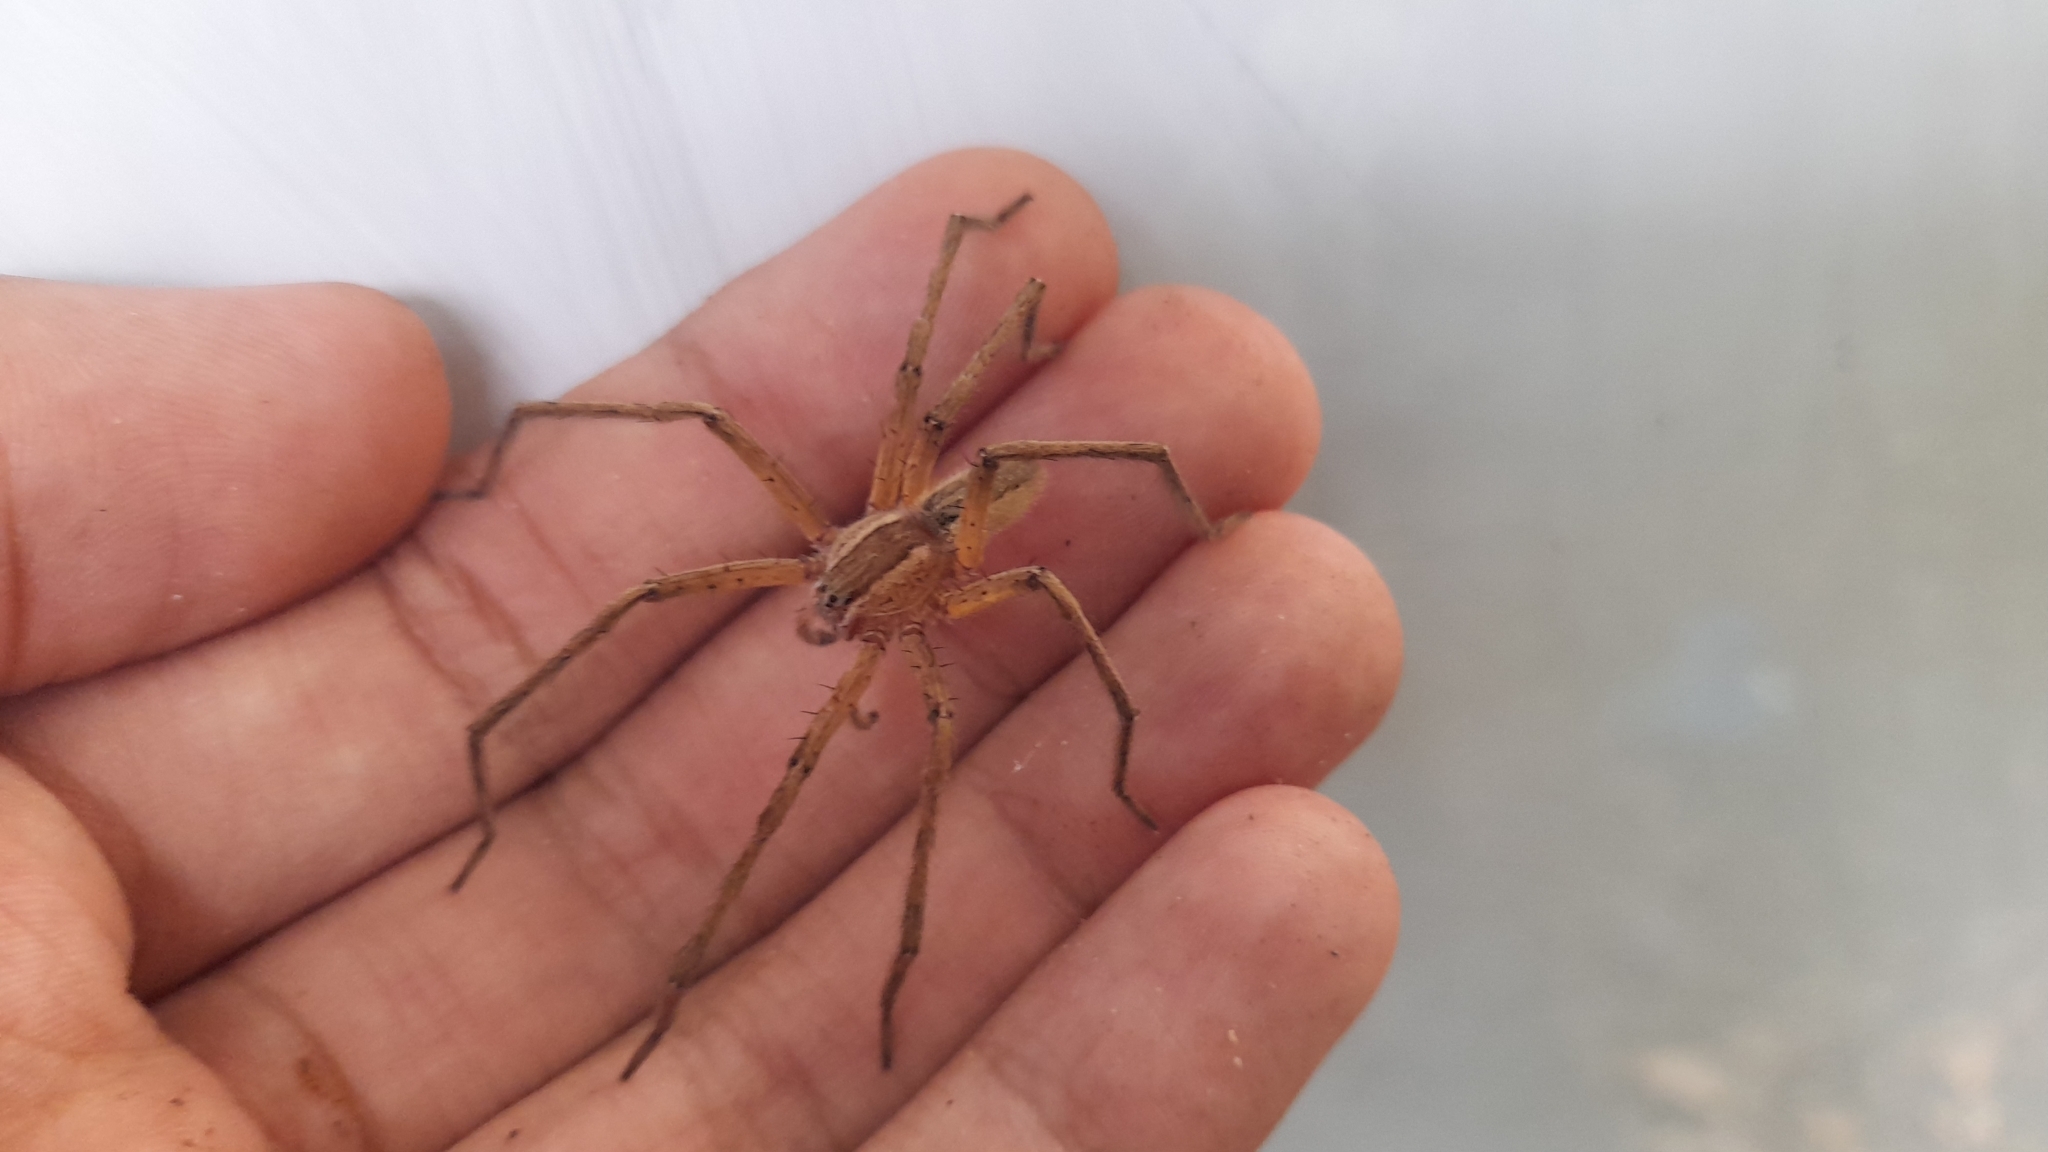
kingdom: Animalia
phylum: Arthropoda
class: Arachnida
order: Araneae
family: Trechaleidae
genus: Cupiennius
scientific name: Cupiennius getazi
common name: Wandering spiders
